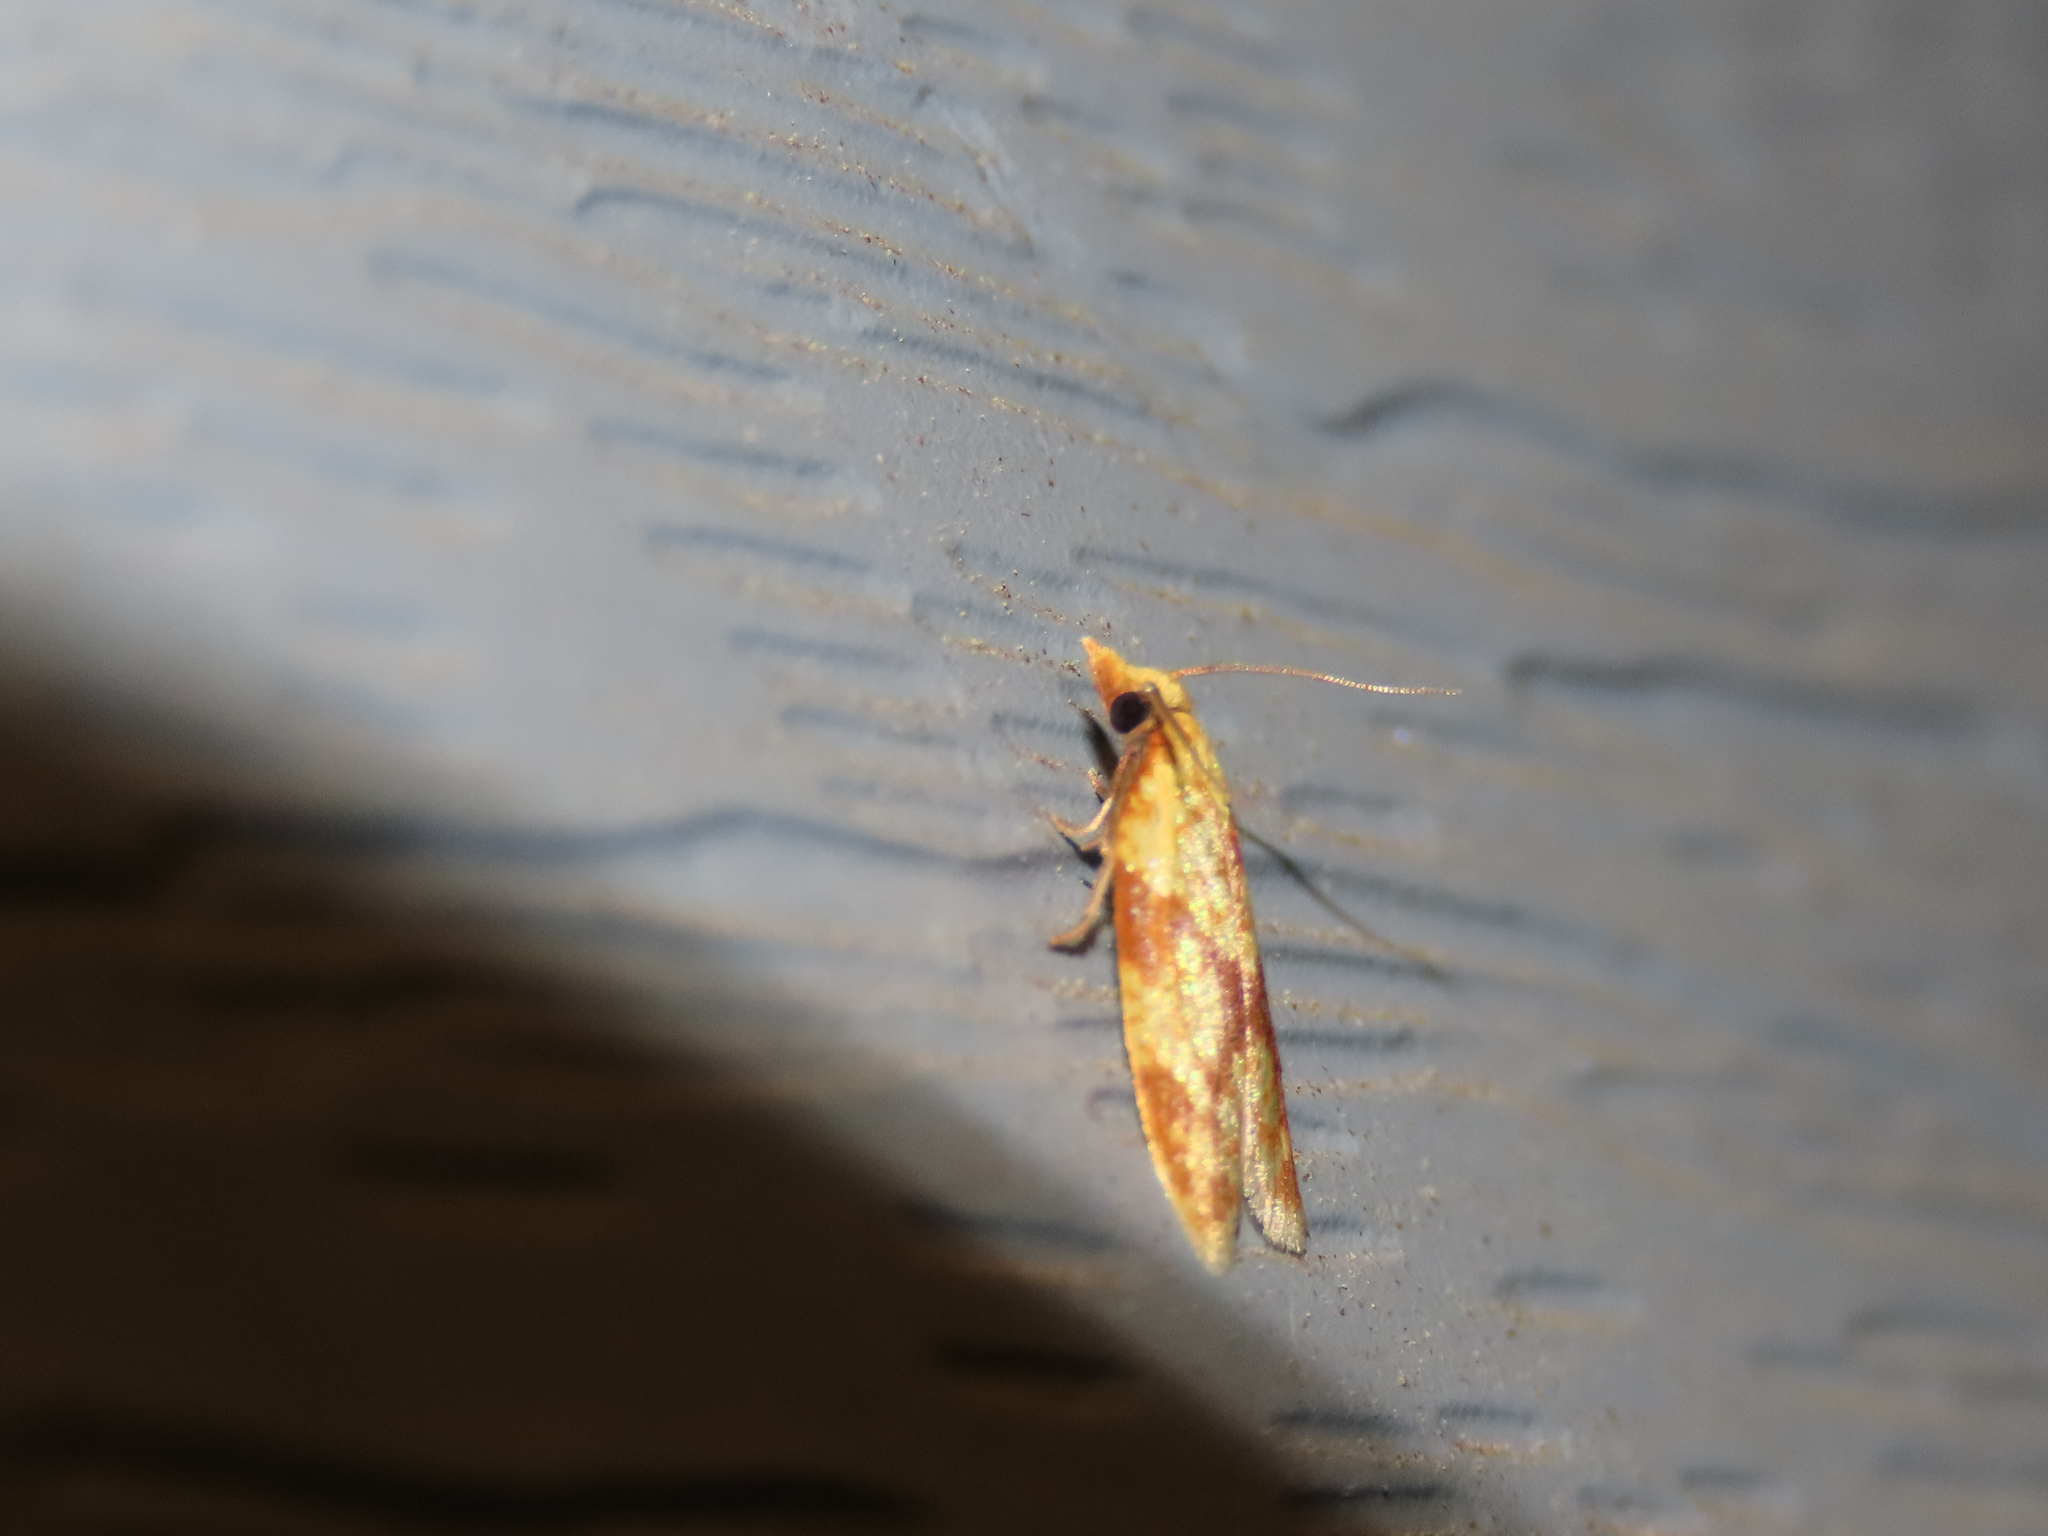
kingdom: Animalia
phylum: Arthropoda
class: Insecta
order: Lepidoptera
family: Tortricidae
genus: Sparganothis
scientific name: Sparganothis sulfureana
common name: Sparganothis fruitworm moth
